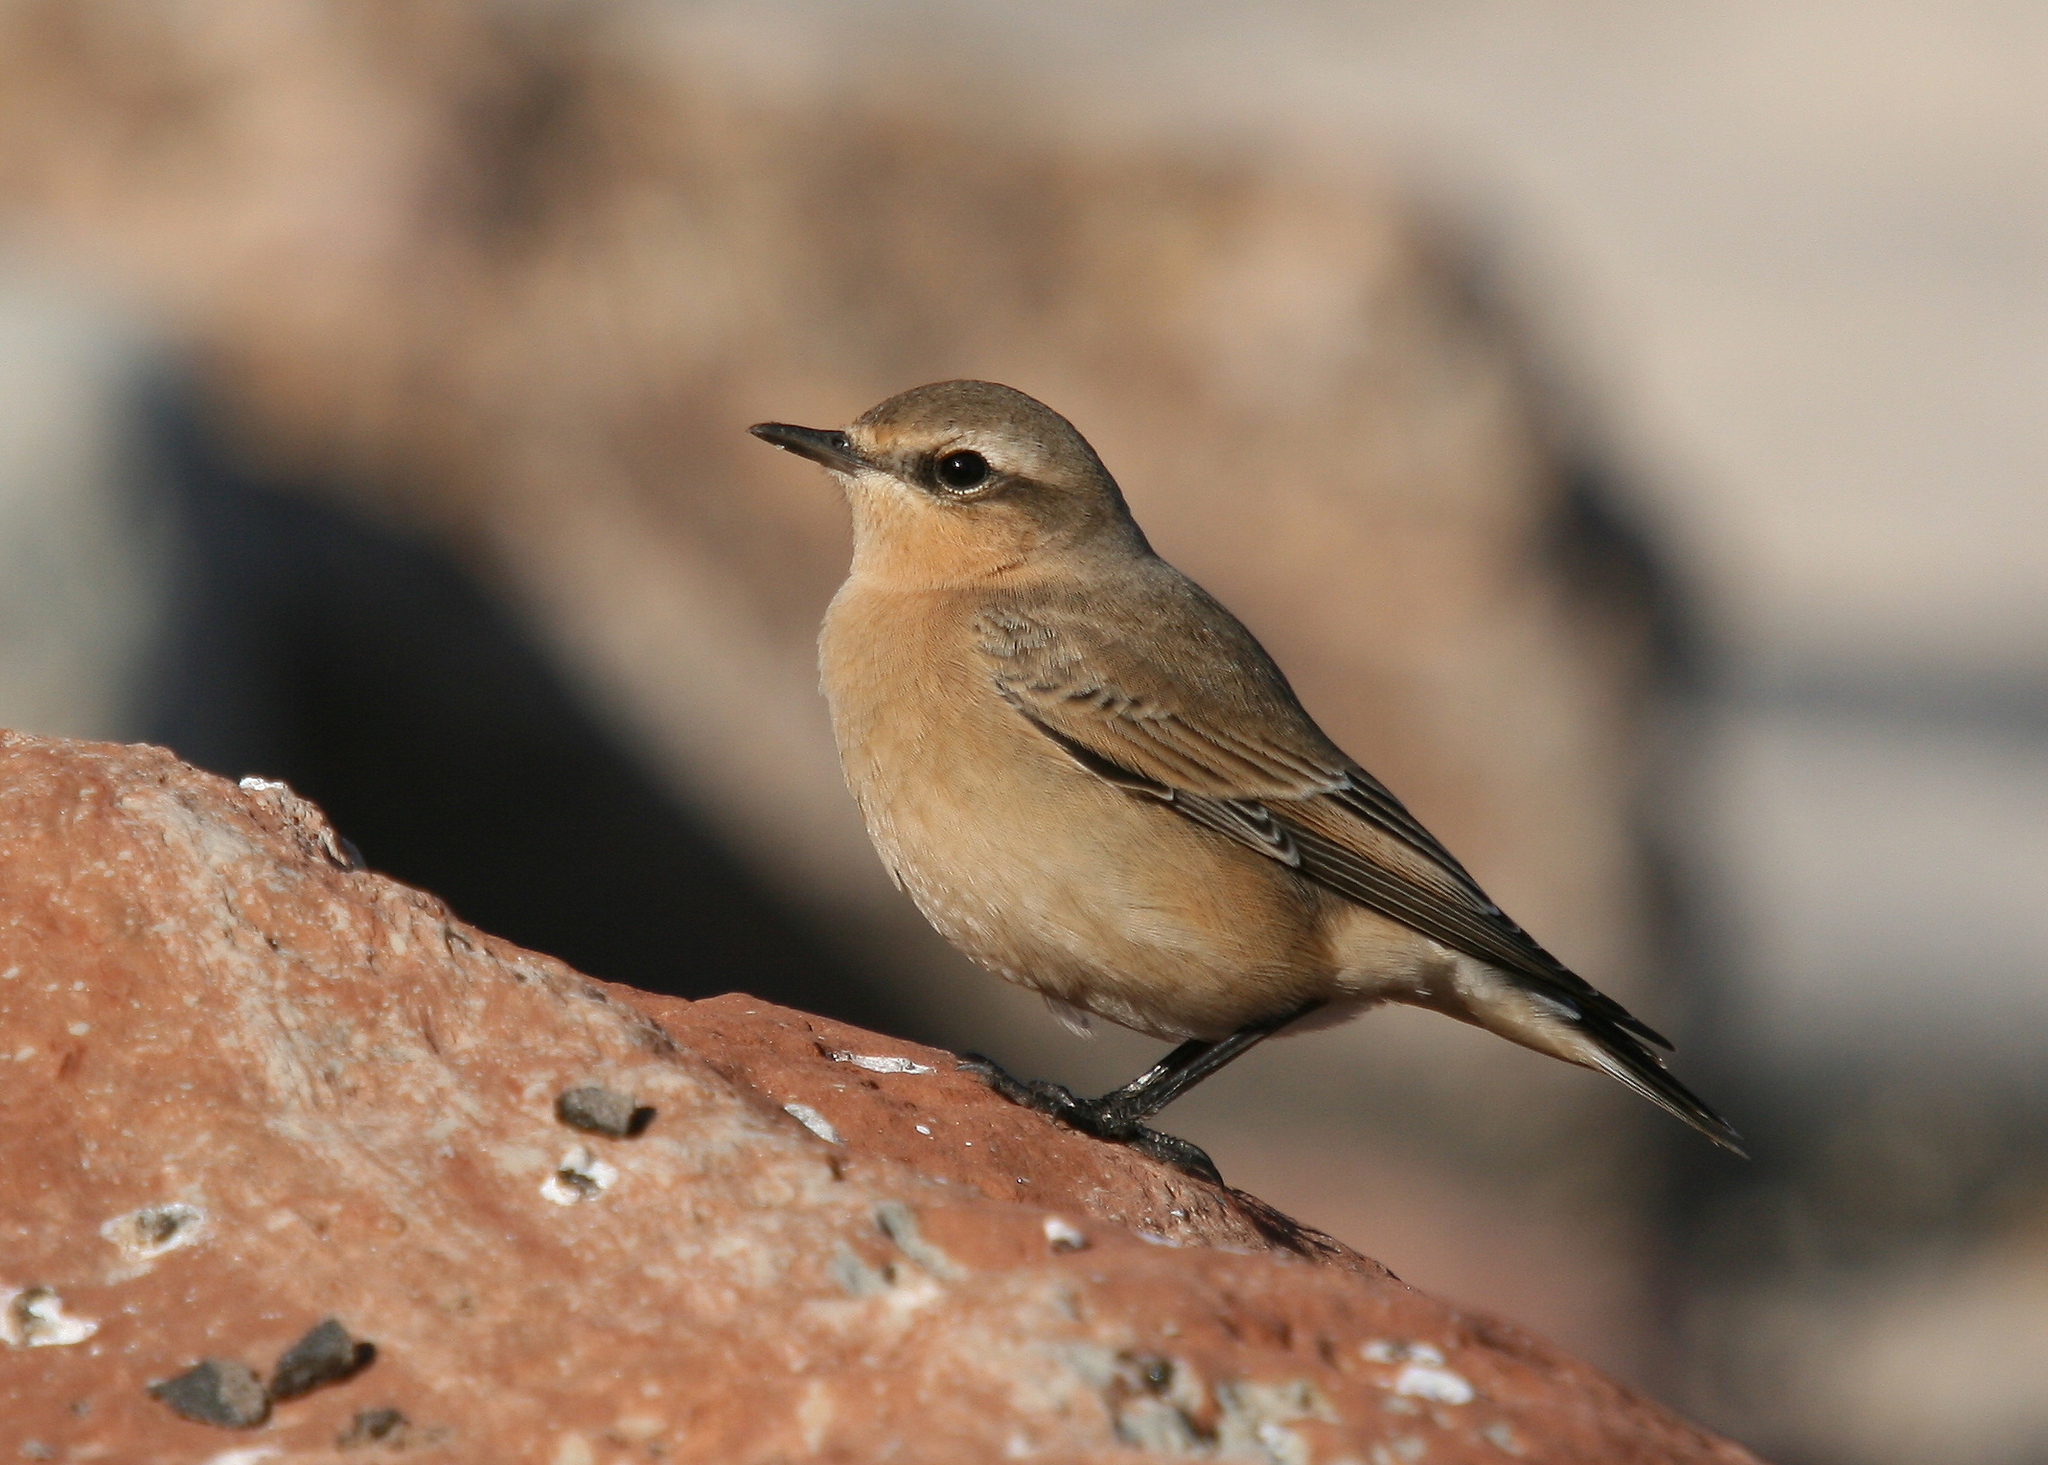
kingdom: Animalia
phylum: Chordata
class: Aves
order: Passeriformes
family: Muscicapidae
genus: Oenanthe
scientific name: Oenanthe oenanthe
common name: Northern wheatear
